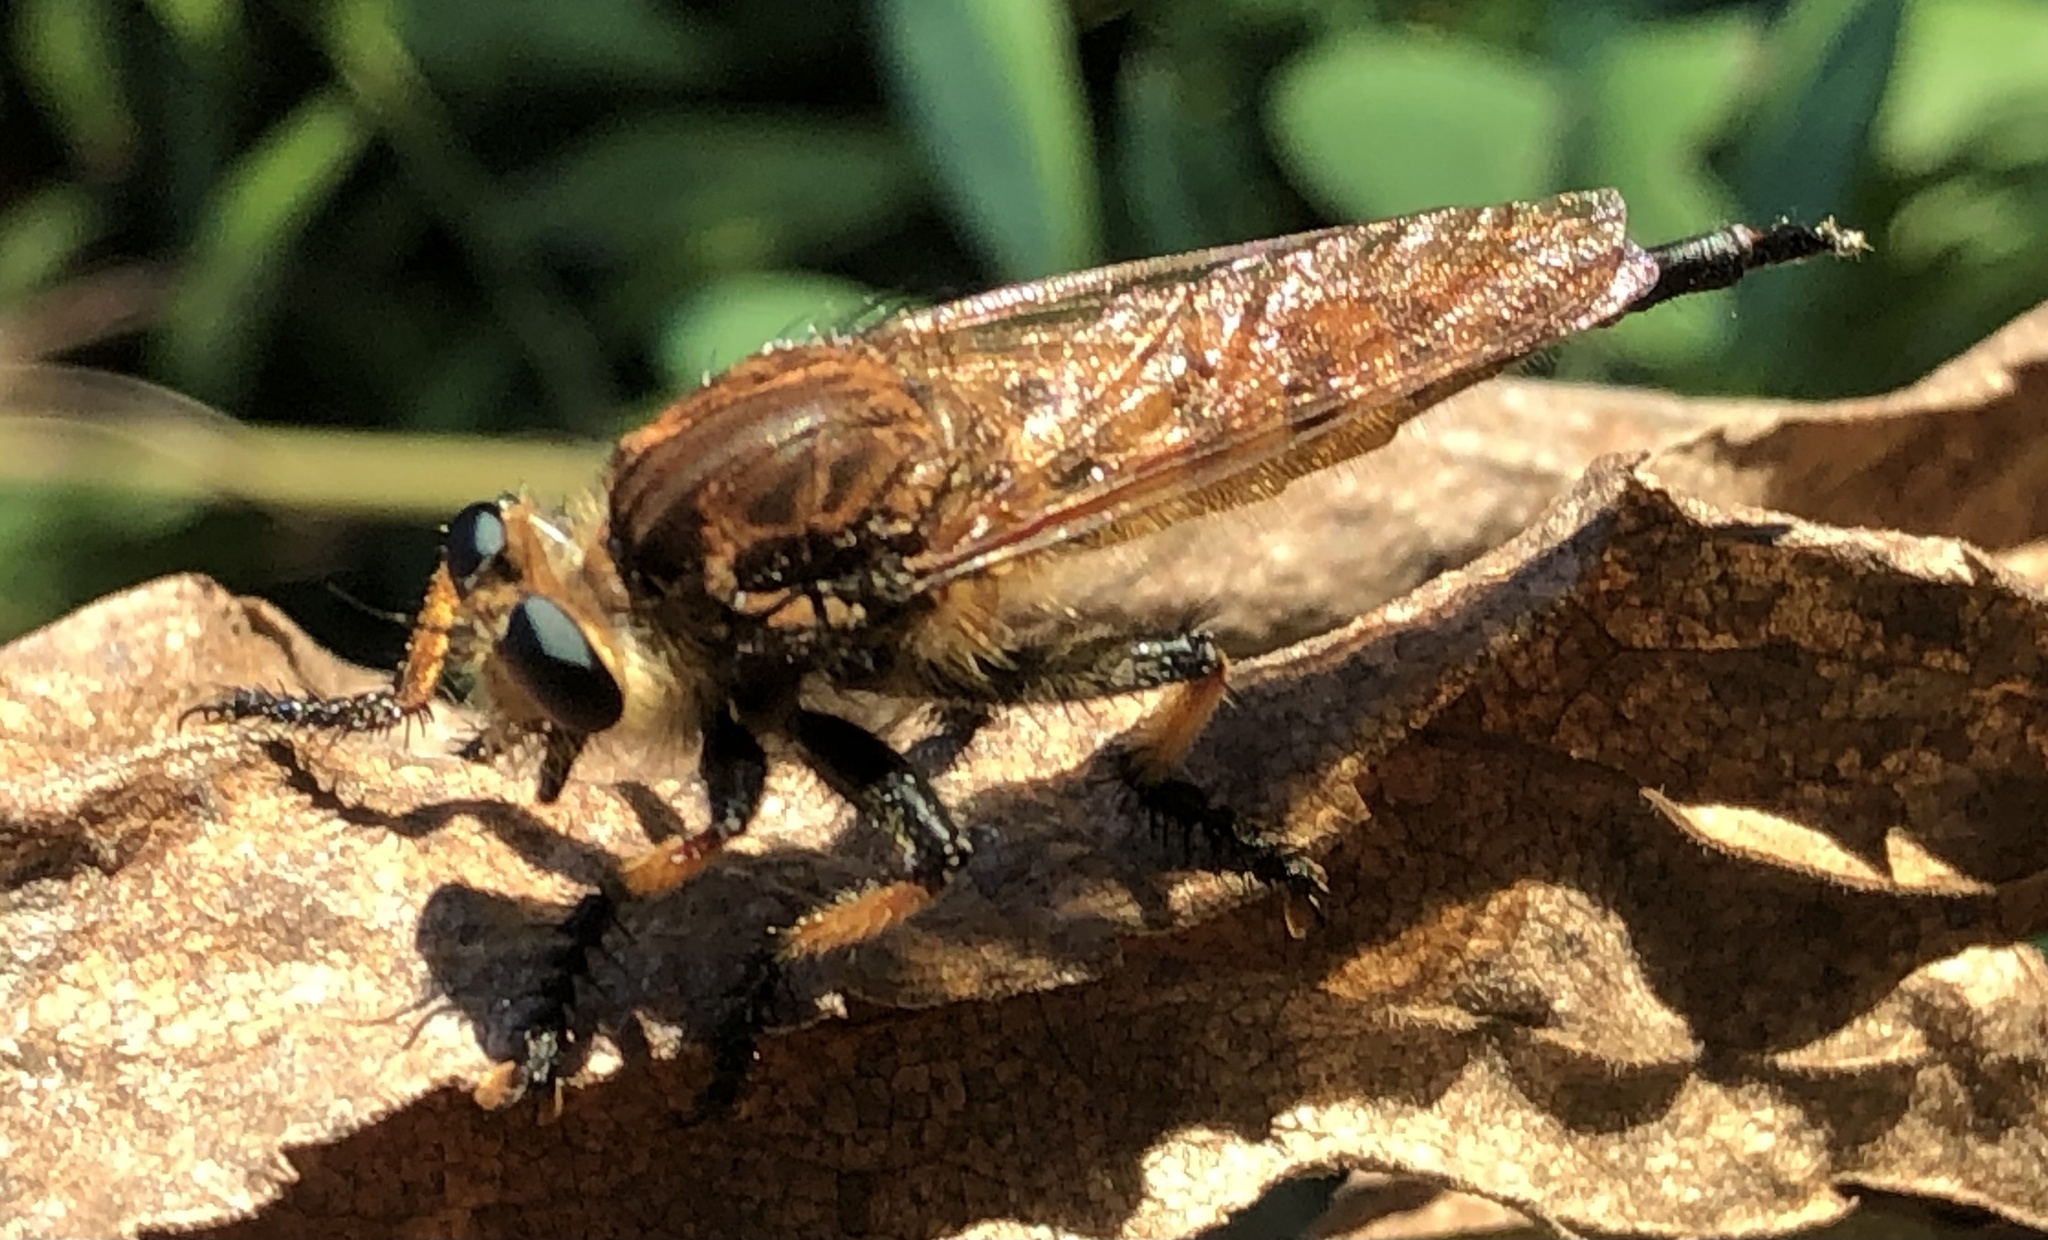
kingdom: Animalia
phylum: Arthropoda
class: Insecta
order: Diptera
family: Asilidae
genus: Promachus
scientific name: Promachus rufipes
